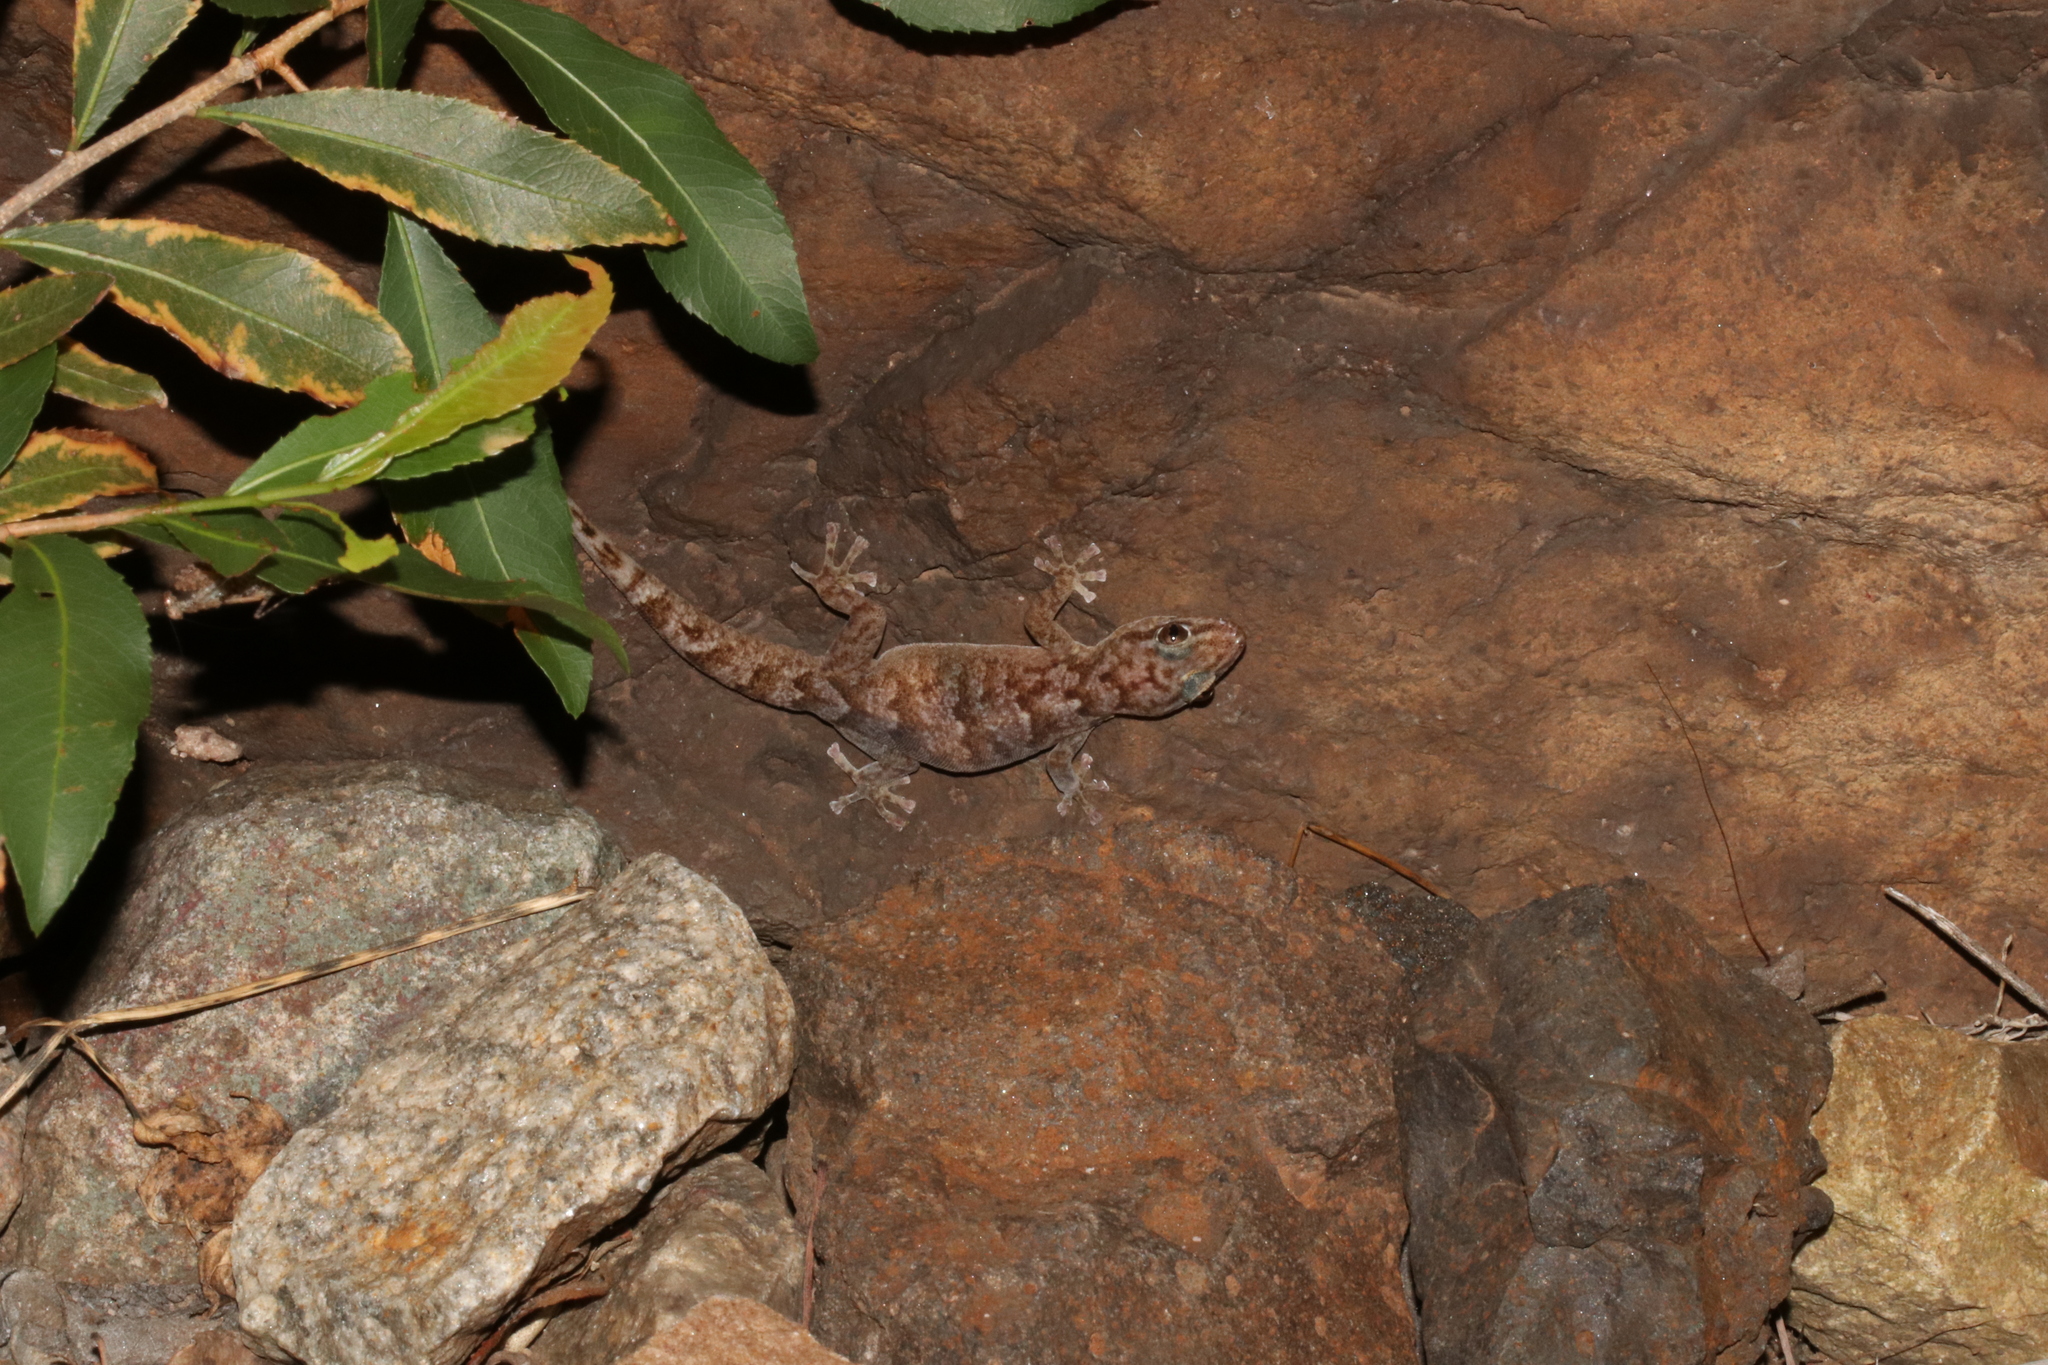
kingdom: Animalia
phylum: Chordata
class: Squamata
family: Gekkonidae
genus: Afroedura
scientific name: Afroedura pienaari
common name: Pienaar’s rock gecko
